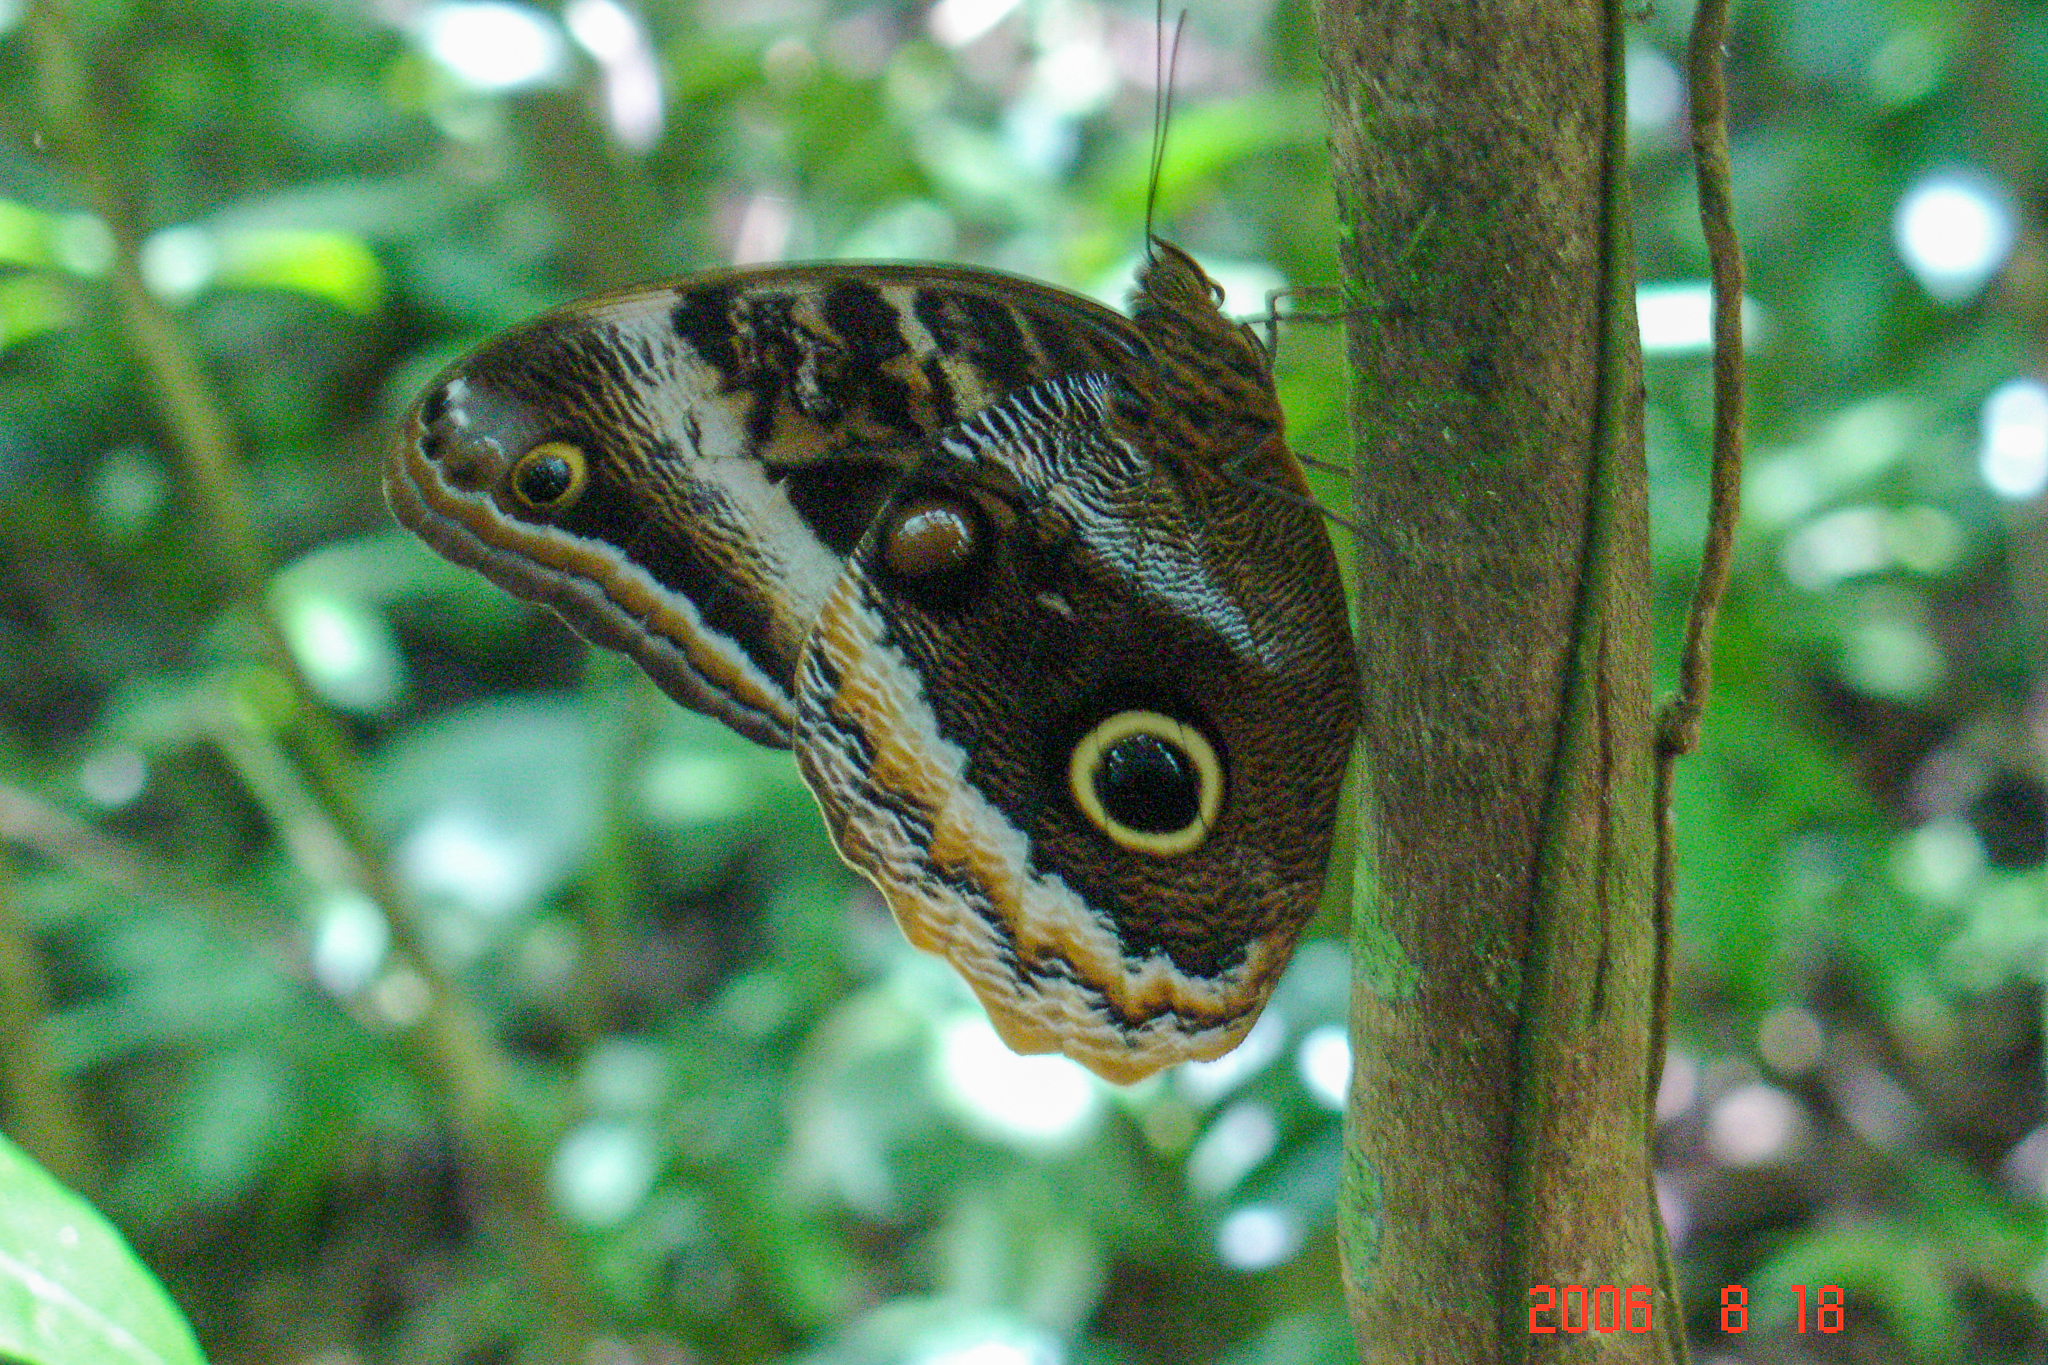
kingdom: Animalia
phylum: Arthropoda
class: Insecta
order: Lepidoptera
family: Nymphalidae
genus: Caligo
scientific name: Caligo uranus
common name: Gold-edged owl-butterfly
